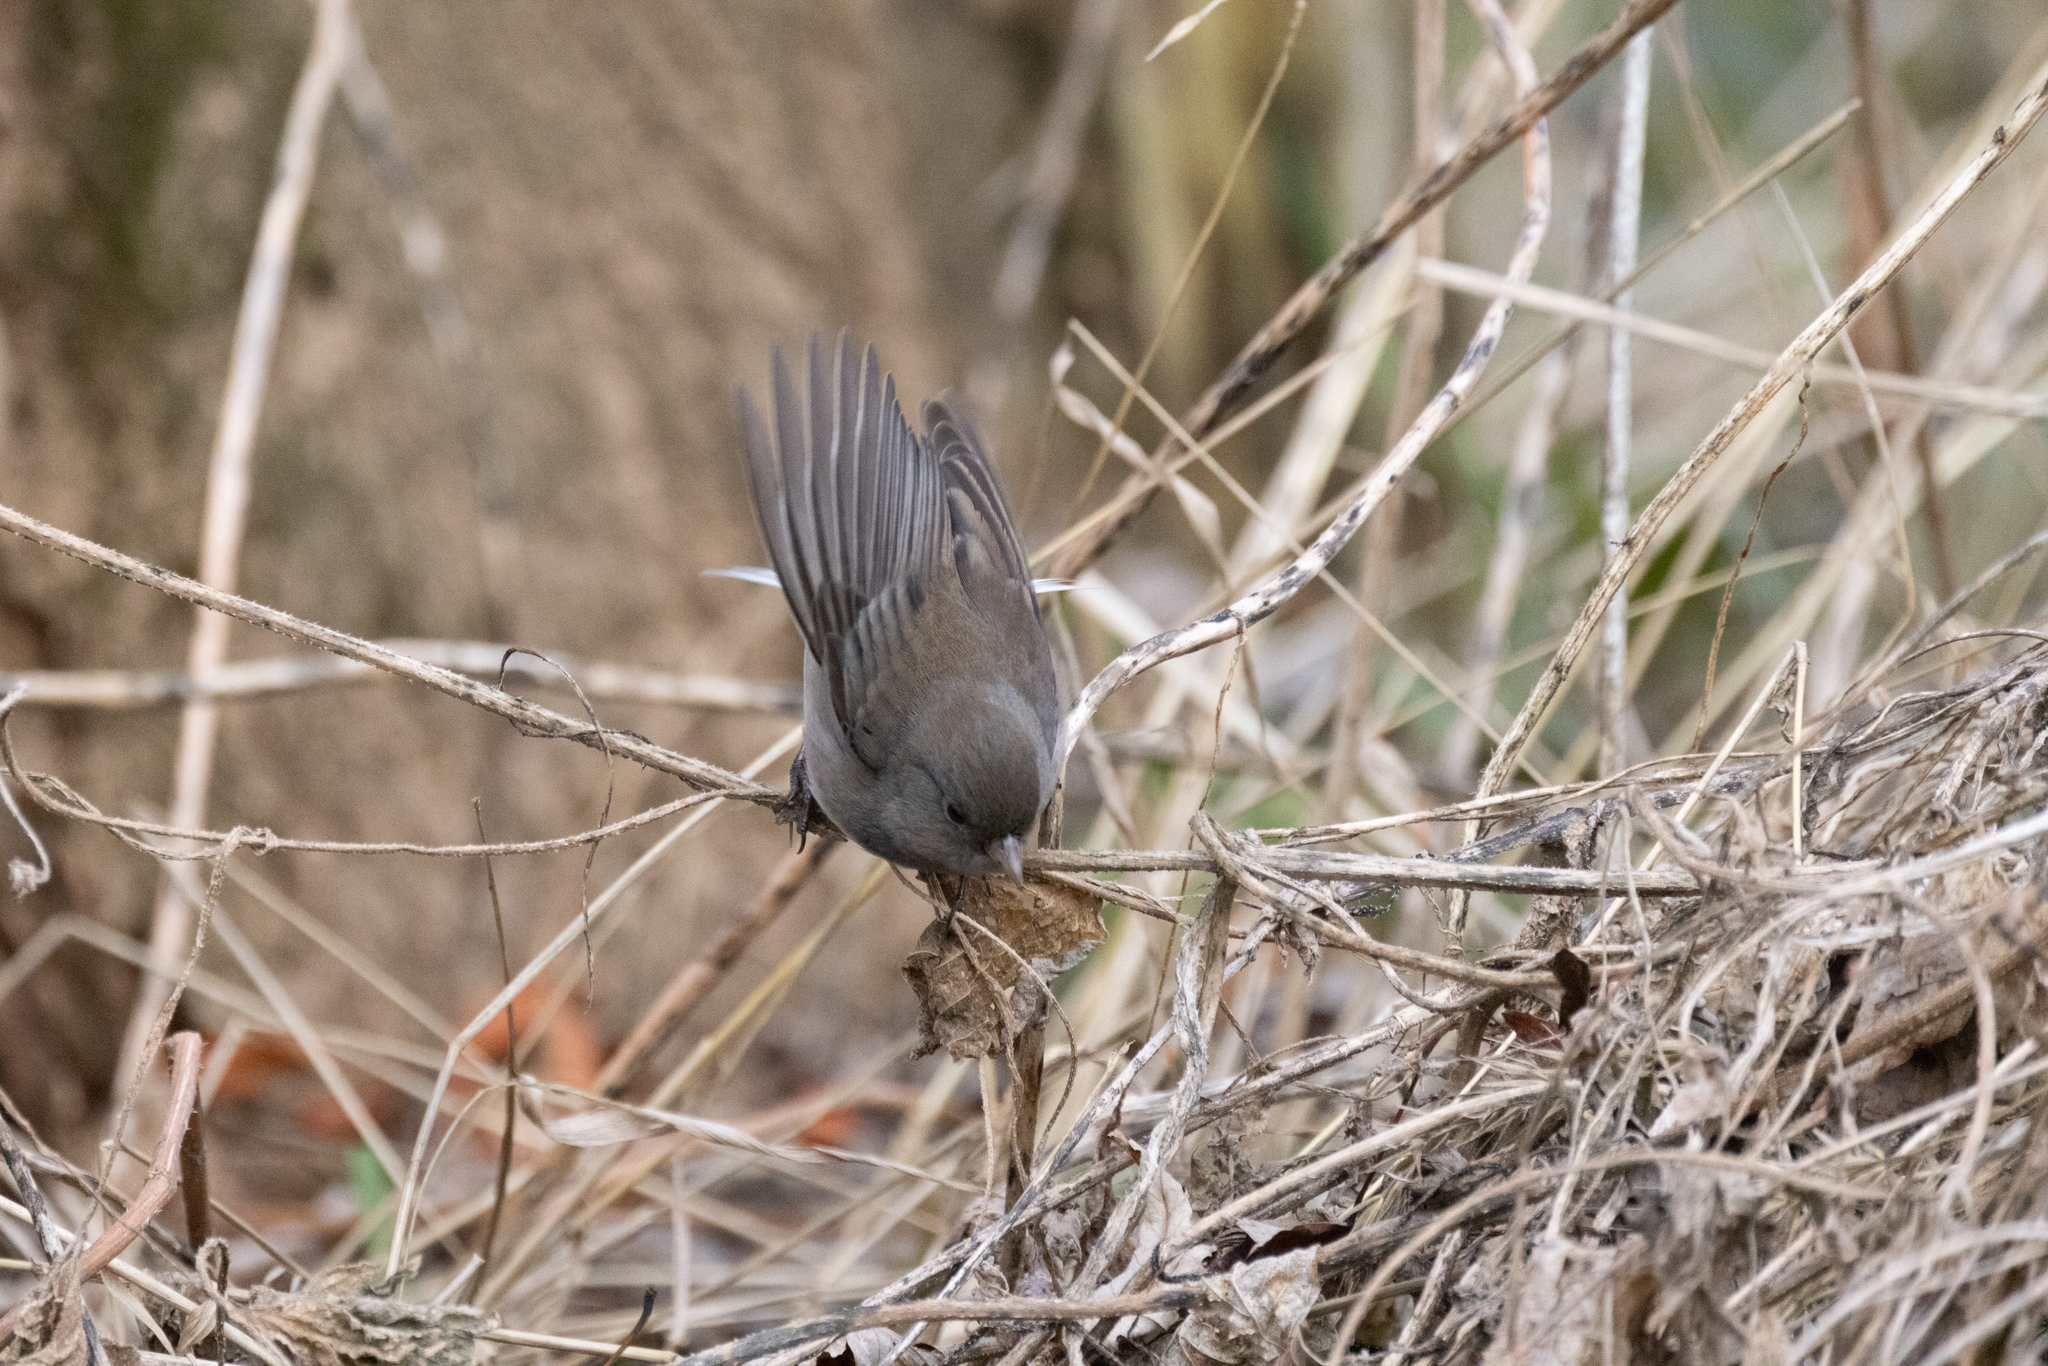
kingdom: Animalia
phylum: Chordata
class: Aves
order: Passeriformes
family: Passerellidae
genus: Junco
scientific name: Junco hyemalis
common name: Dark-eyed junco
